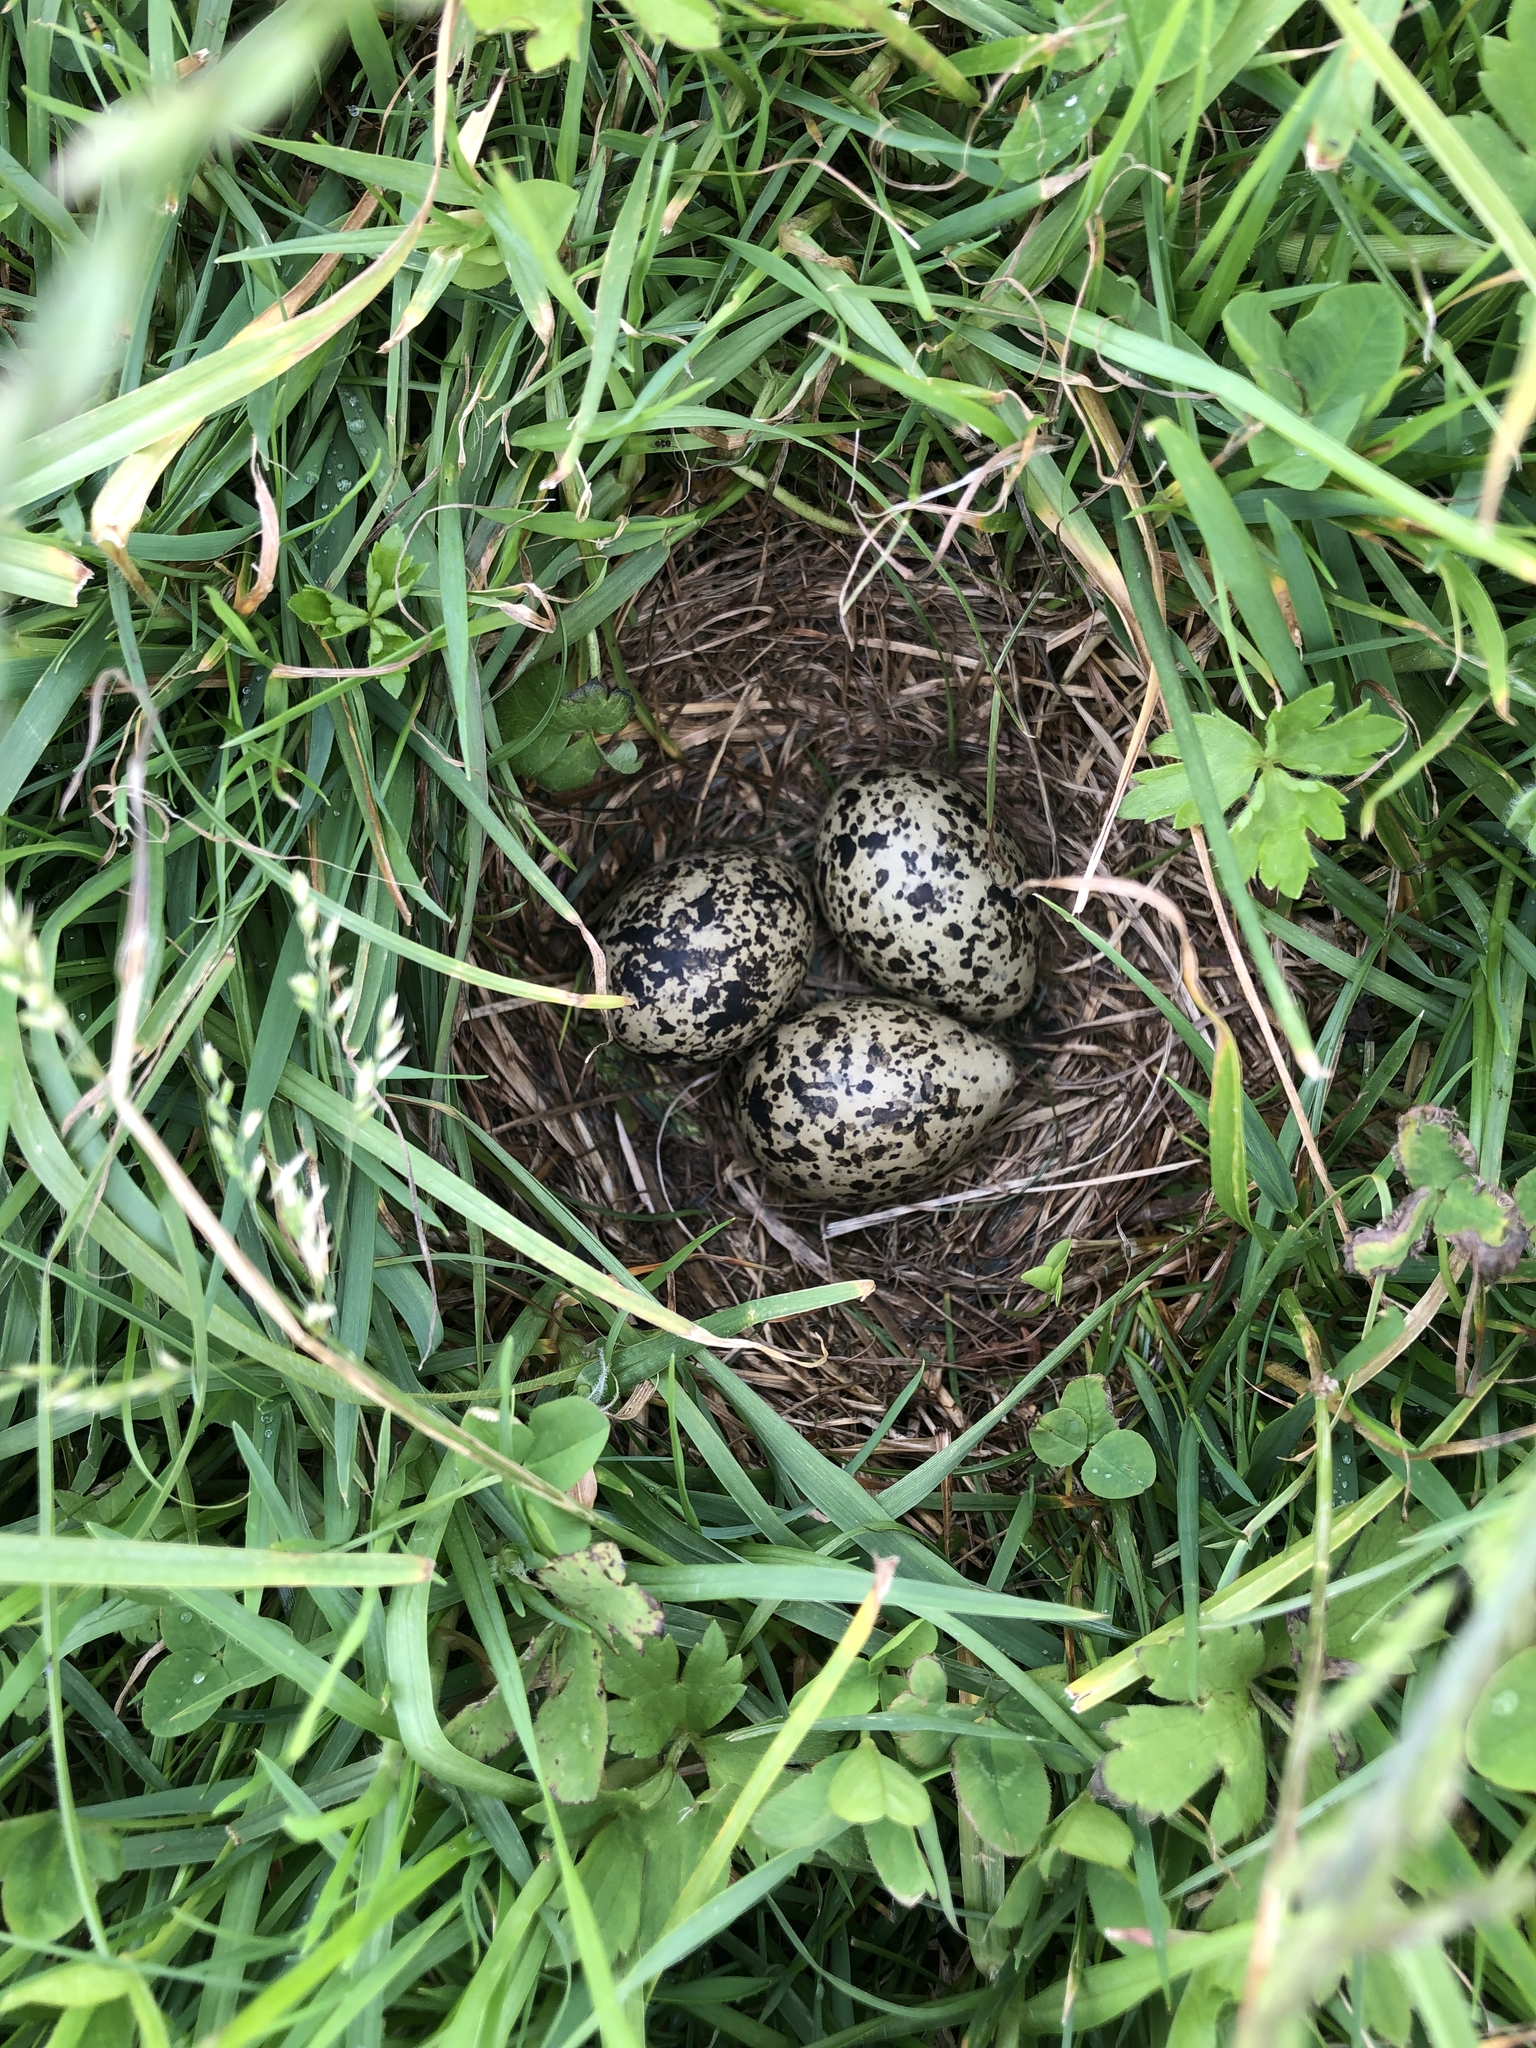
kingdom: Animalia
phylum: Chordata
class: Aves
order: Charadriiformes
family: Charadriidae
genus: Anarhynchus
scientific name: Anarhynchus
